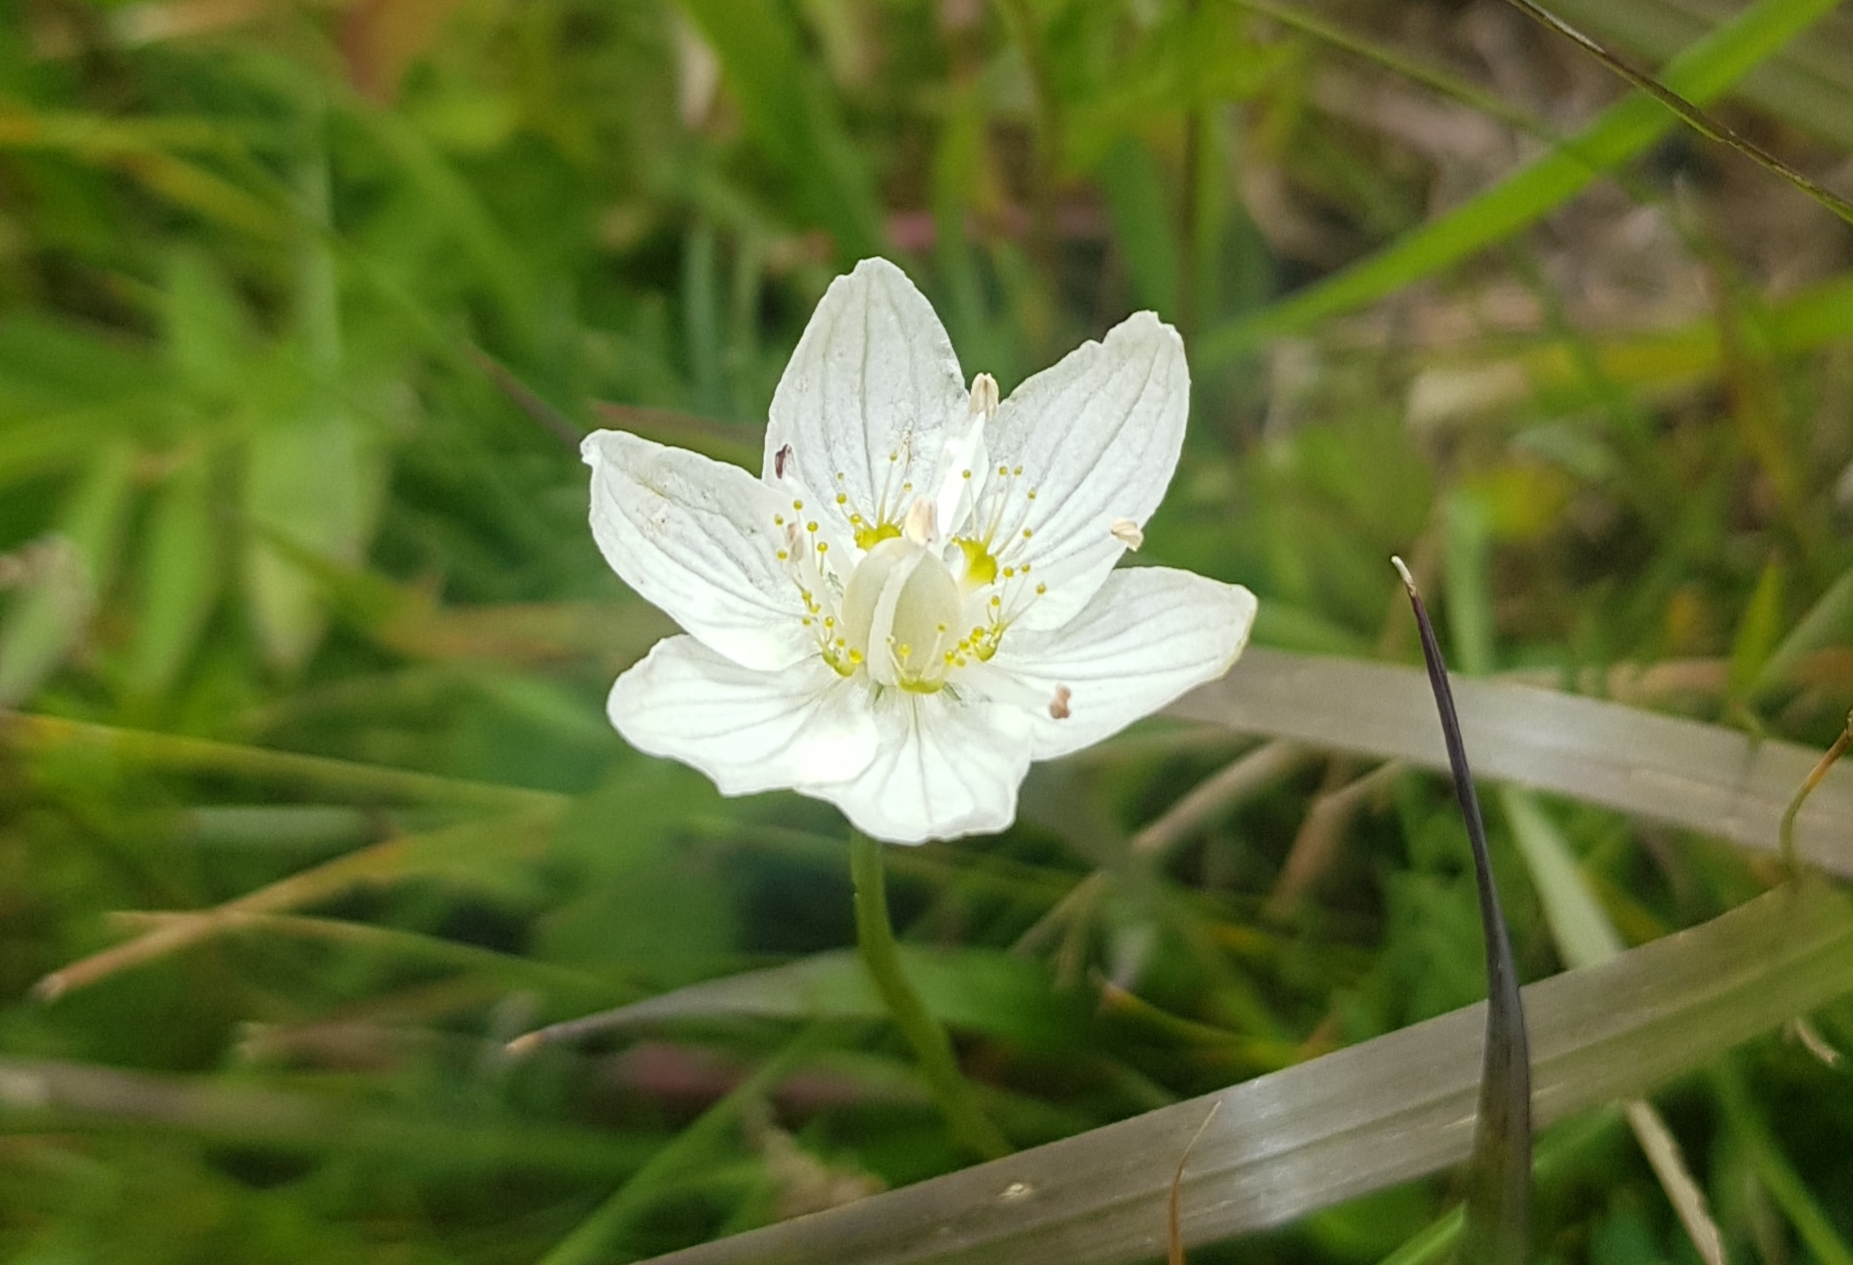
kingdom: Plantae
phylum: Tracheophyta
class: Magnoliopsida
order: Celastrales
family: Parnassiaceae
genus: Parnassia
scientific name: Parnassia palustris
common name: Grass-of-parnassus
